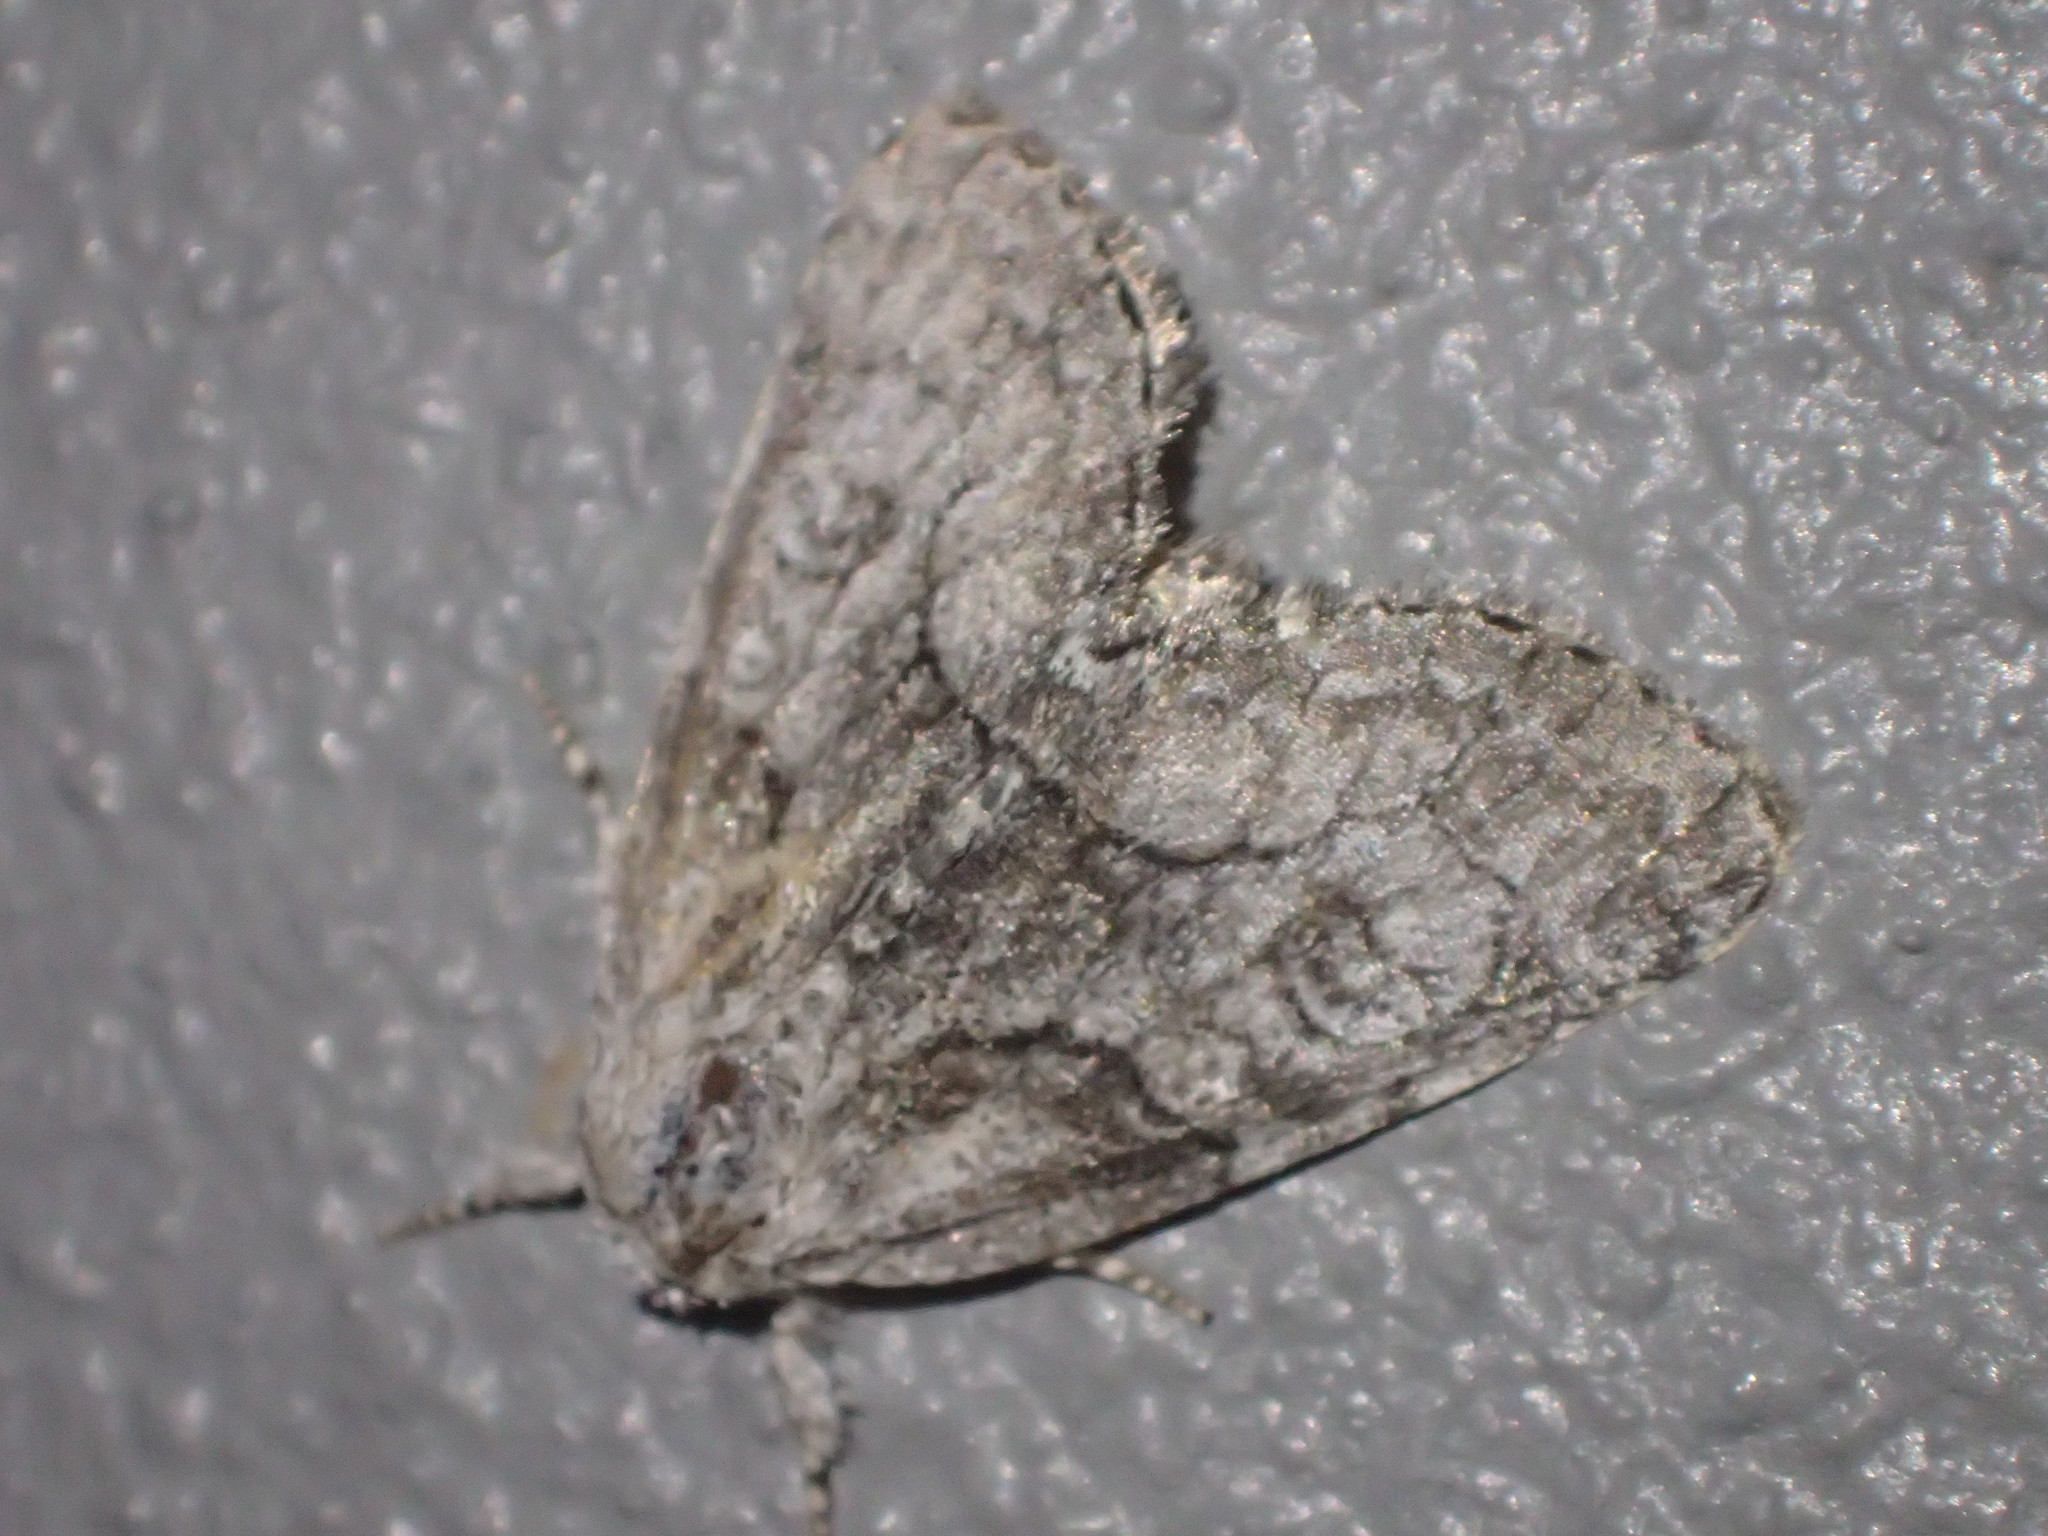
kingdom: Animalia
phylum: Arthropoda
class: Insecta
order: Lepidoptera
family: Noctuidae
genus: Raphia
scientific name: Raphia frater
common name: Brother
